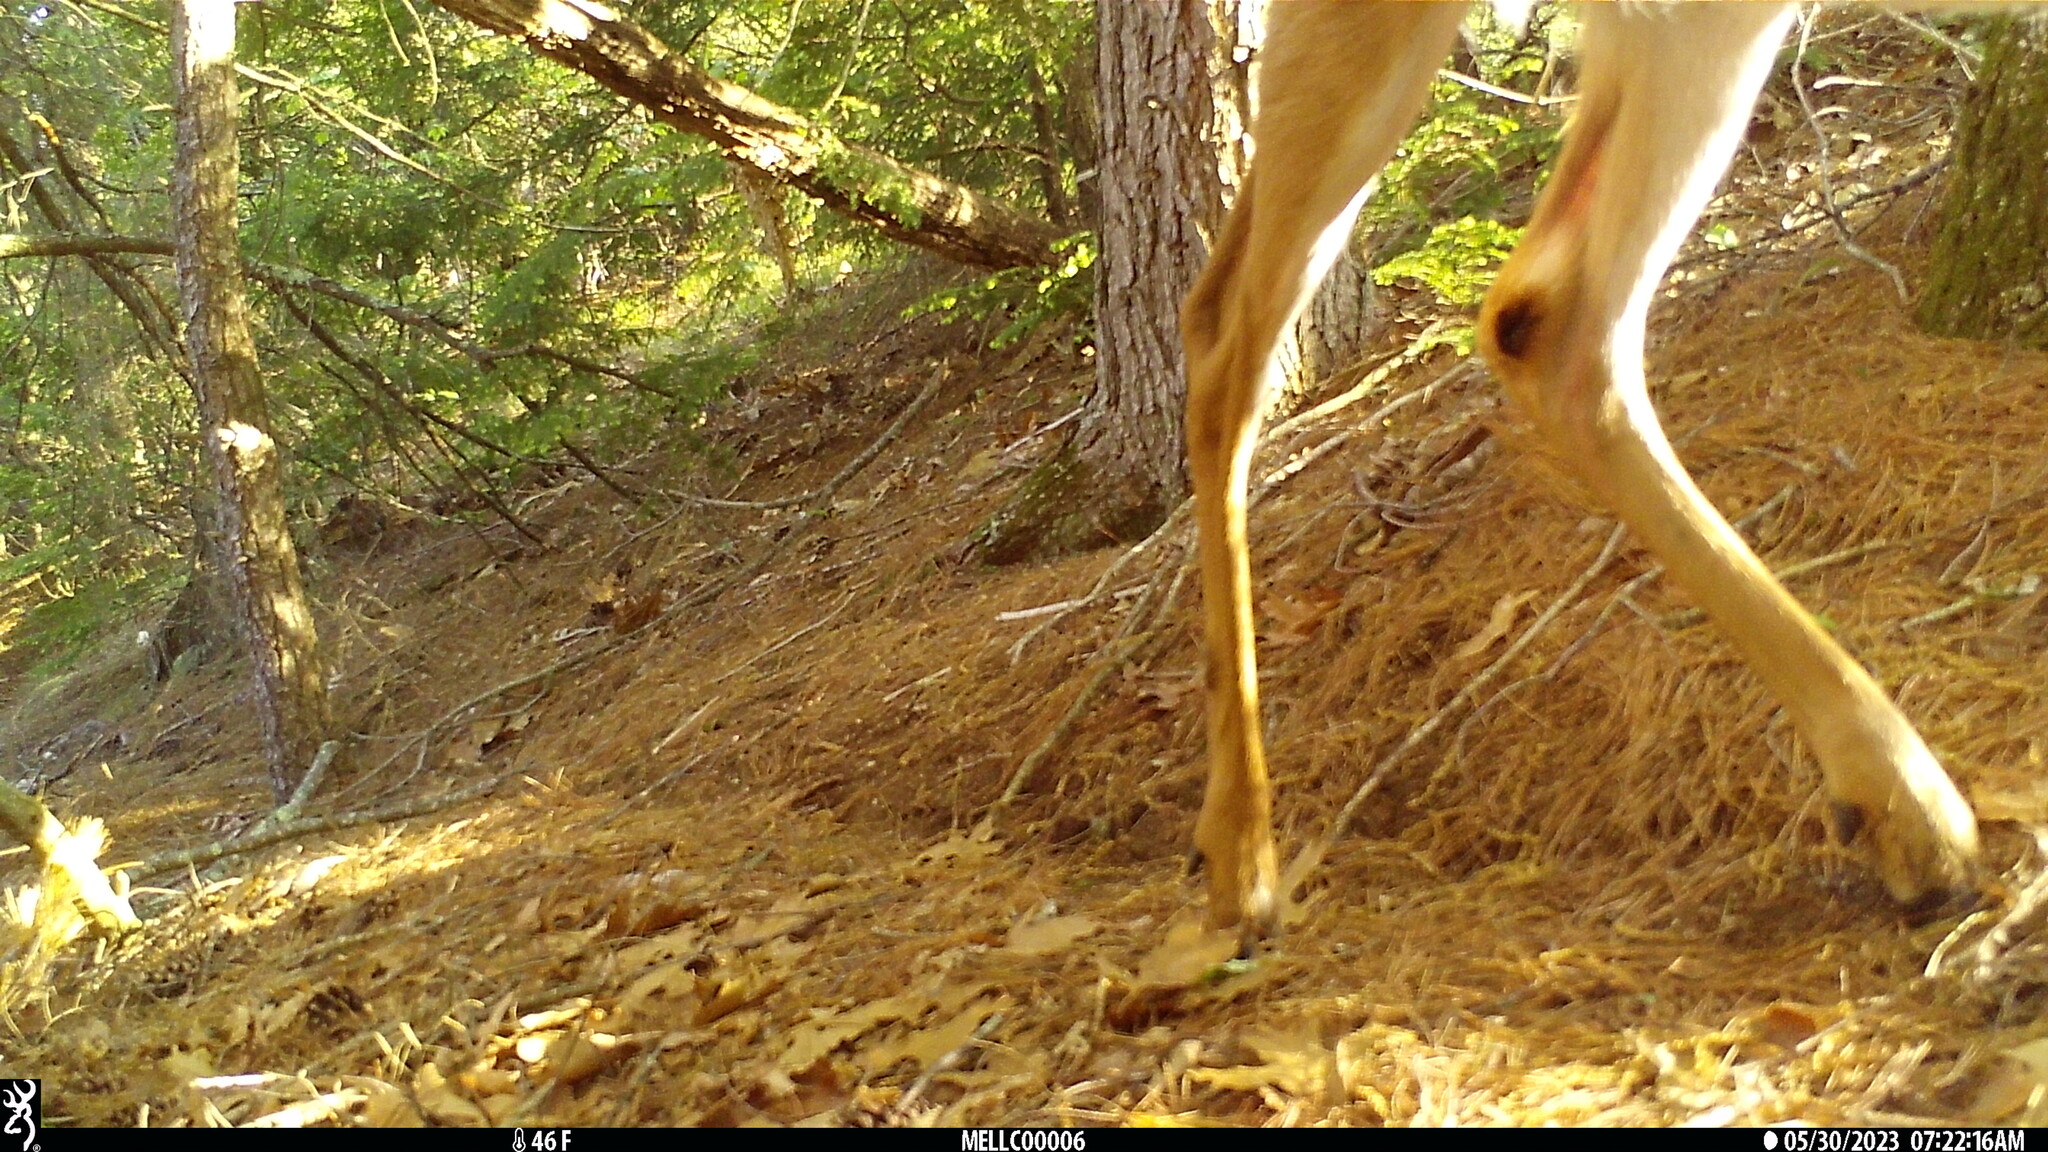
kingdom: Animalia
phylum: Chordata
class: Mammalia
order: Artiodactyla
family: Cervidae
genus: Odocoileus
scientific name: Odocoileus virginianus
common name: White-tailed deer
